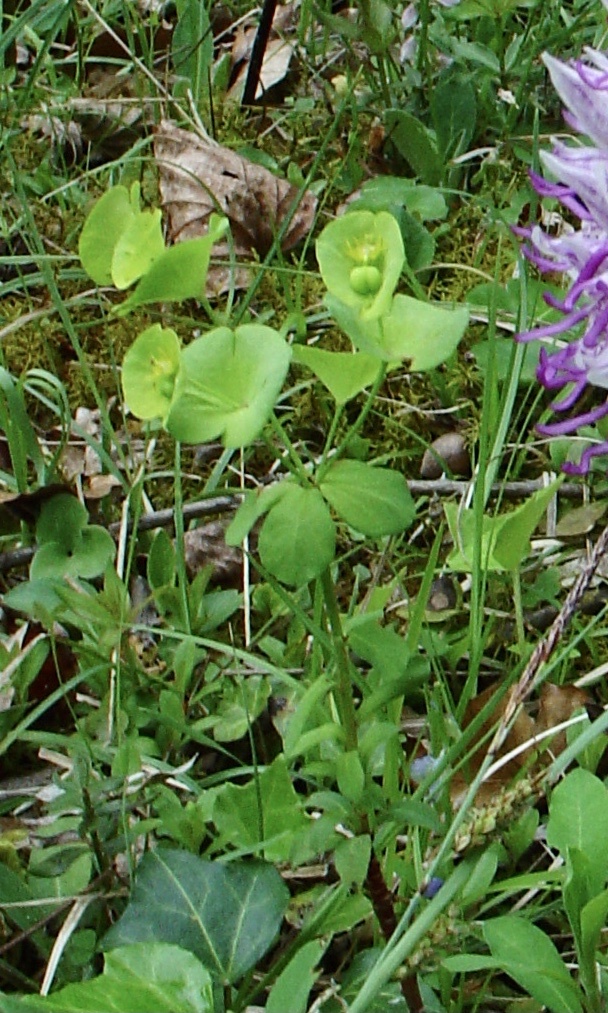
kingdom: Plantae
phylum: Tracheophyta
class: Magnoliopsida
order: Malpighiales
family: Euphorbiaceae
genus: Euphorbia
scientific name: Euphorbia amygdaloides
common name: Wood spurge
